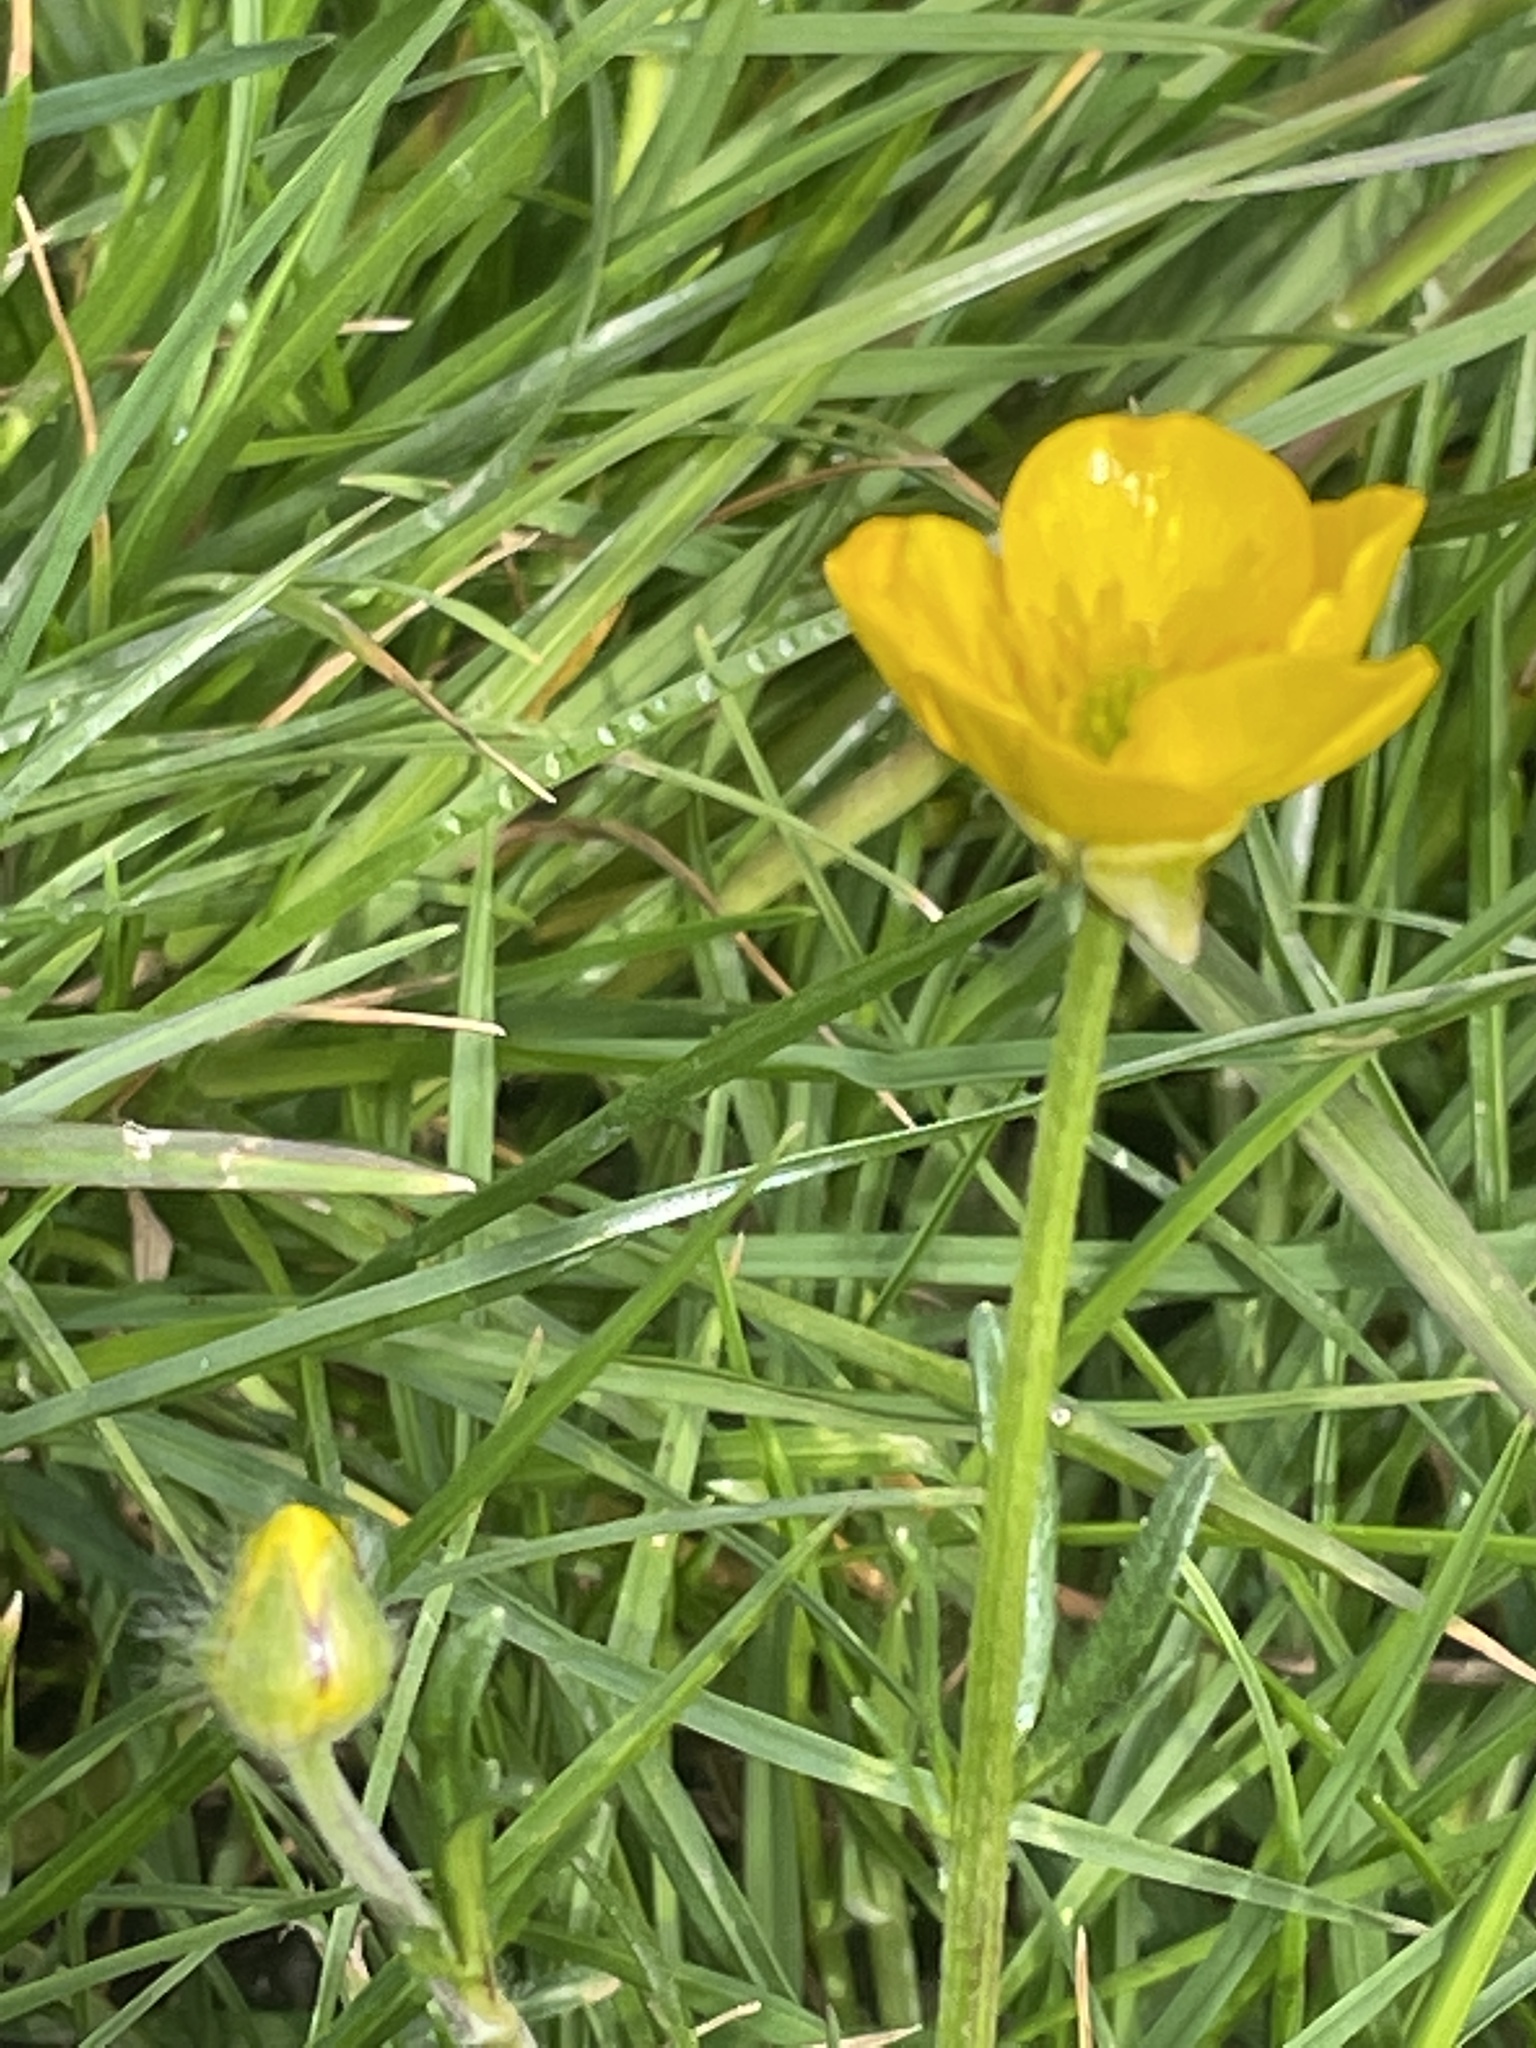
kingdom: Plantae
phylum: Tracheophyta
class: Magnoliopsida
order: Ranunculales
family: Ranunculaceae
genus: Ranunculus
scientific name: Ranunculus bulbosus
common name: Bulbous buttercup
